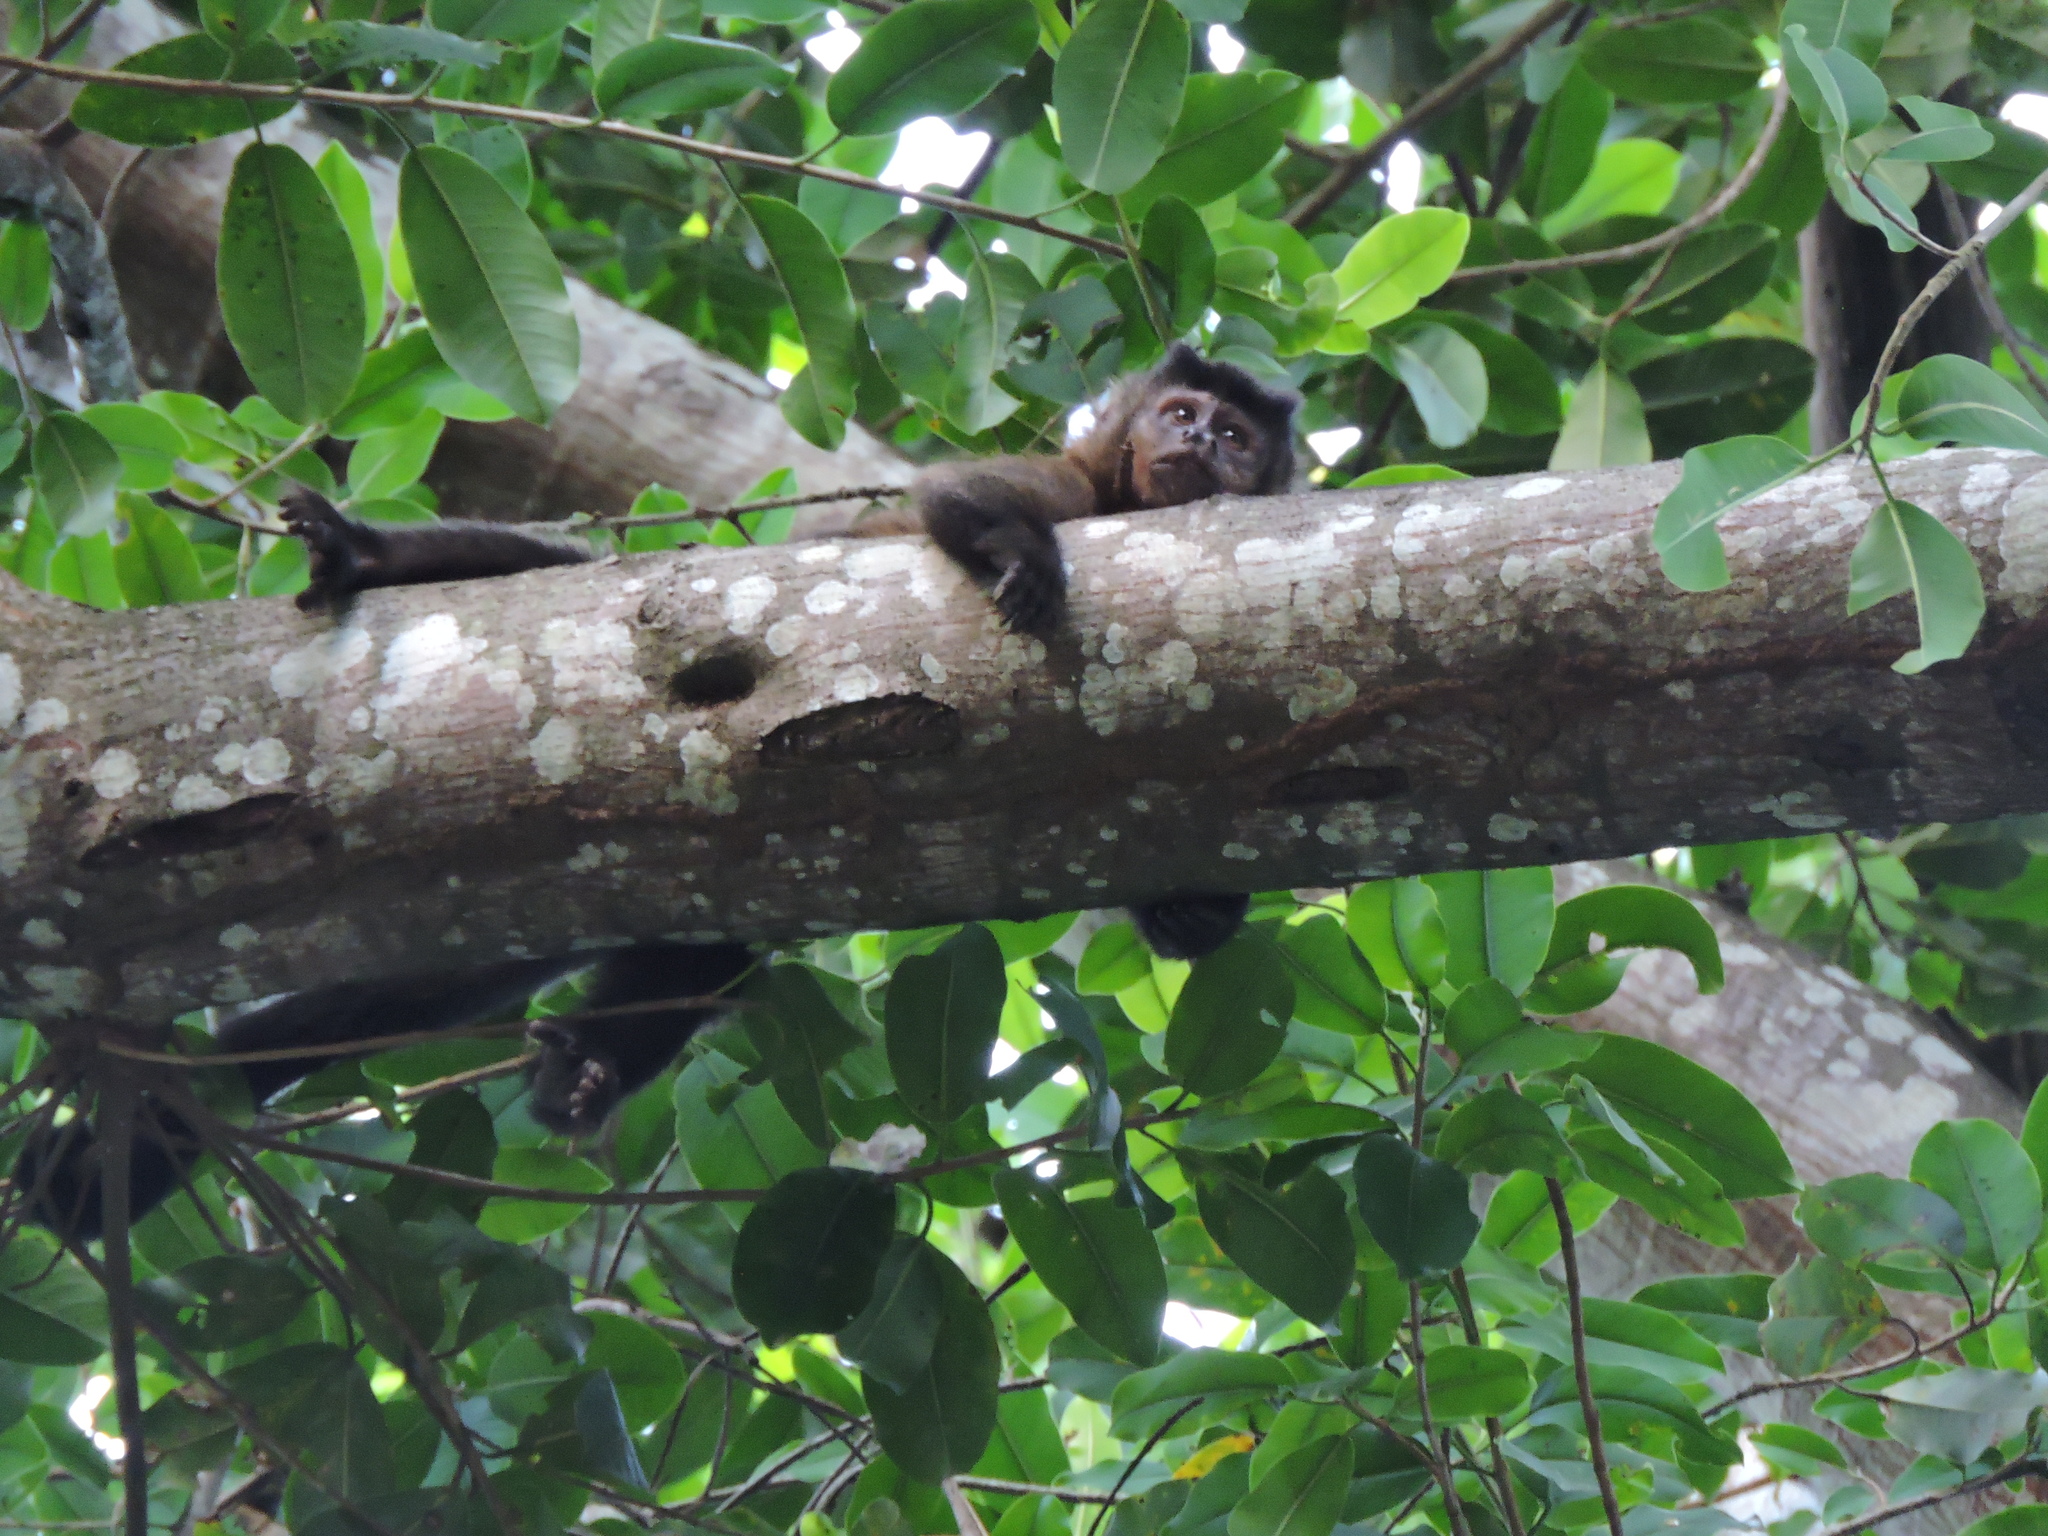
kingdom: Animalia
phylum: Chordata
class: Mammalia
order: Primates
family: Cebidae
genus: Sapajus
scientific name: Sapajus nigritus
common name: Black capuchin
